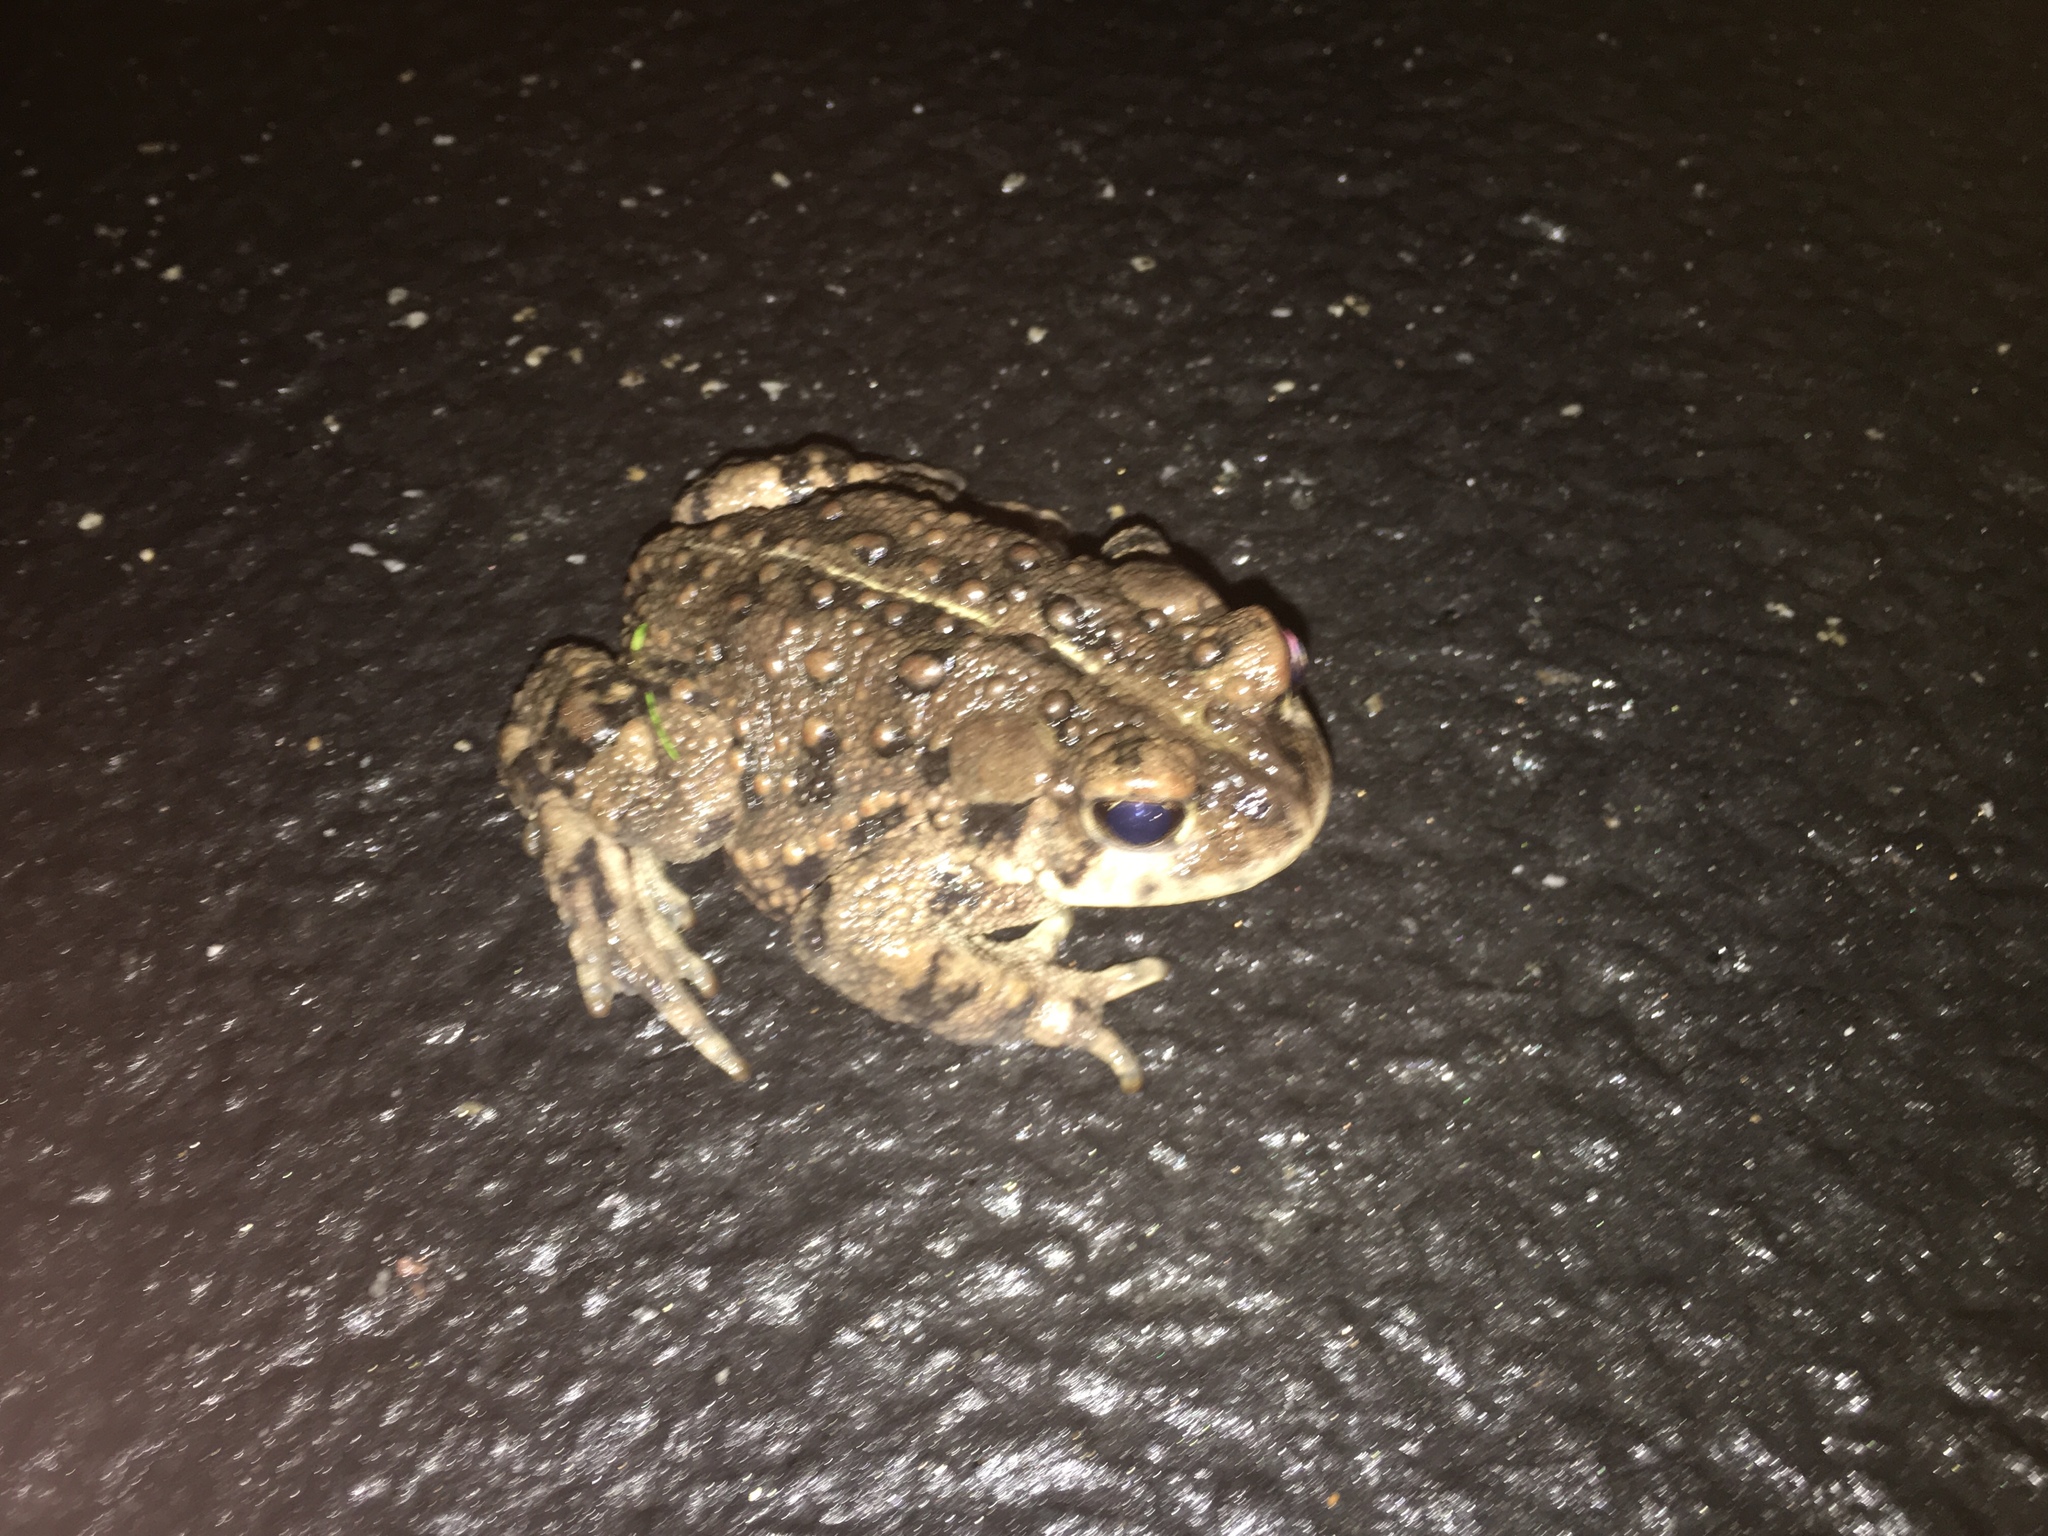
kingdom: Animalia
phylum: Chordata
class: Amphibia
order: Anura
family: Bufonidae
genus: Anaxyrus
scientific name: Anaxyrus boreas
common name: Western toad
